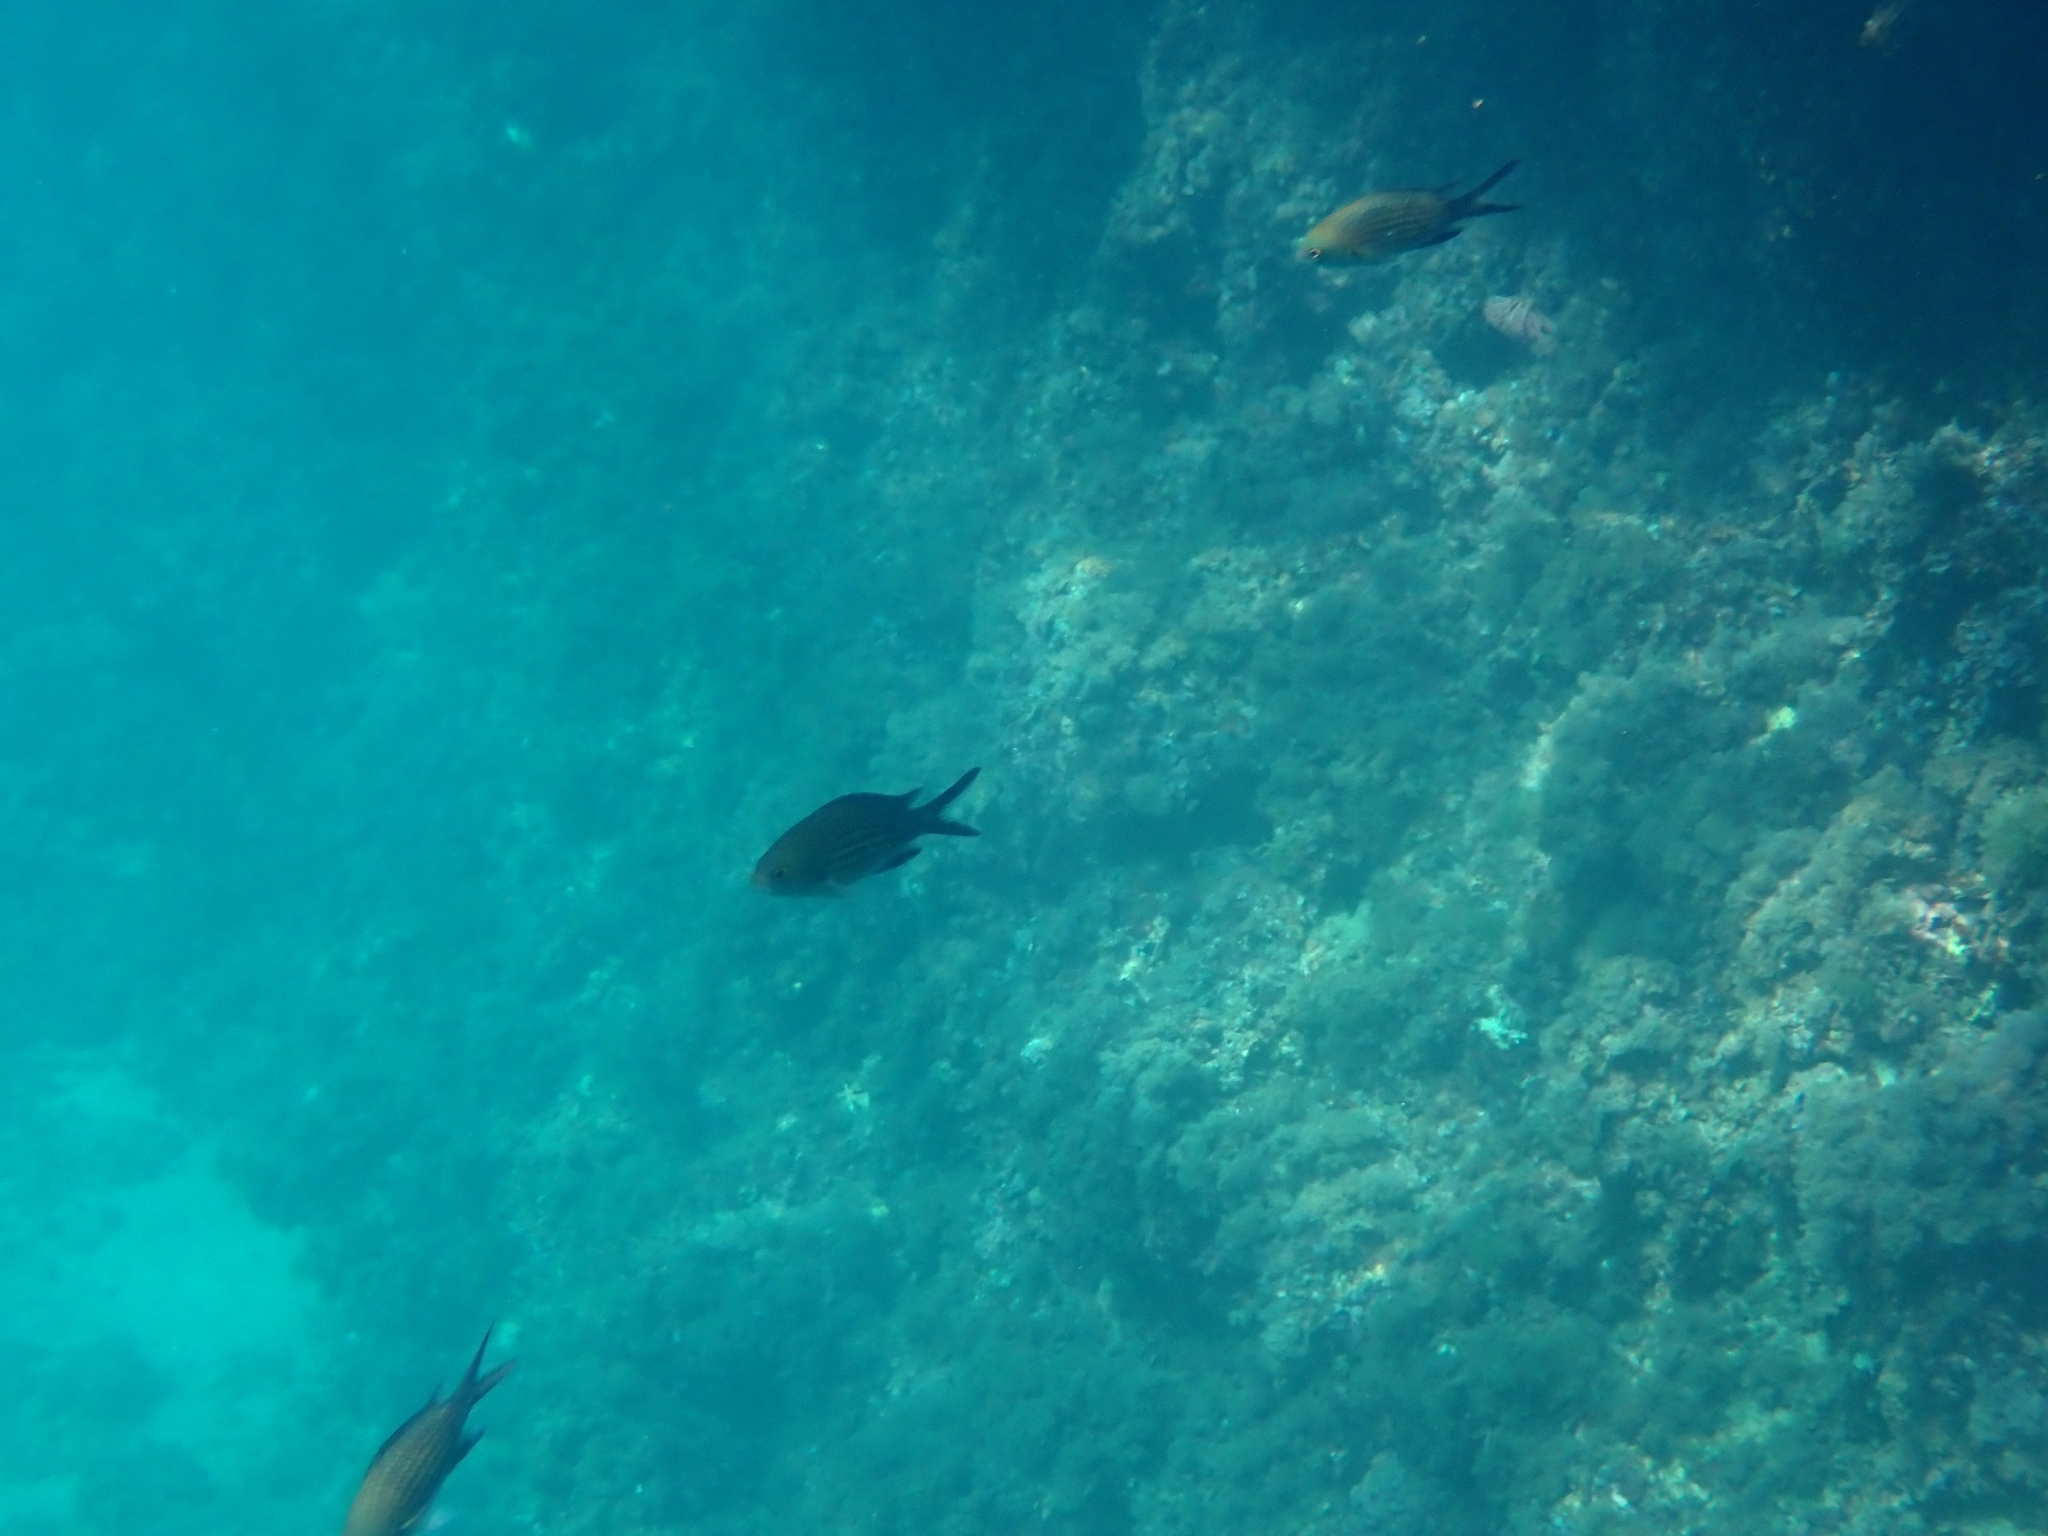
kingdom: Animalia
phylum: Chordata
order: Perciformes
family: Pomacentridae
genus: Chromis
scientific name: Chromis chromis
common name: Damselfish
